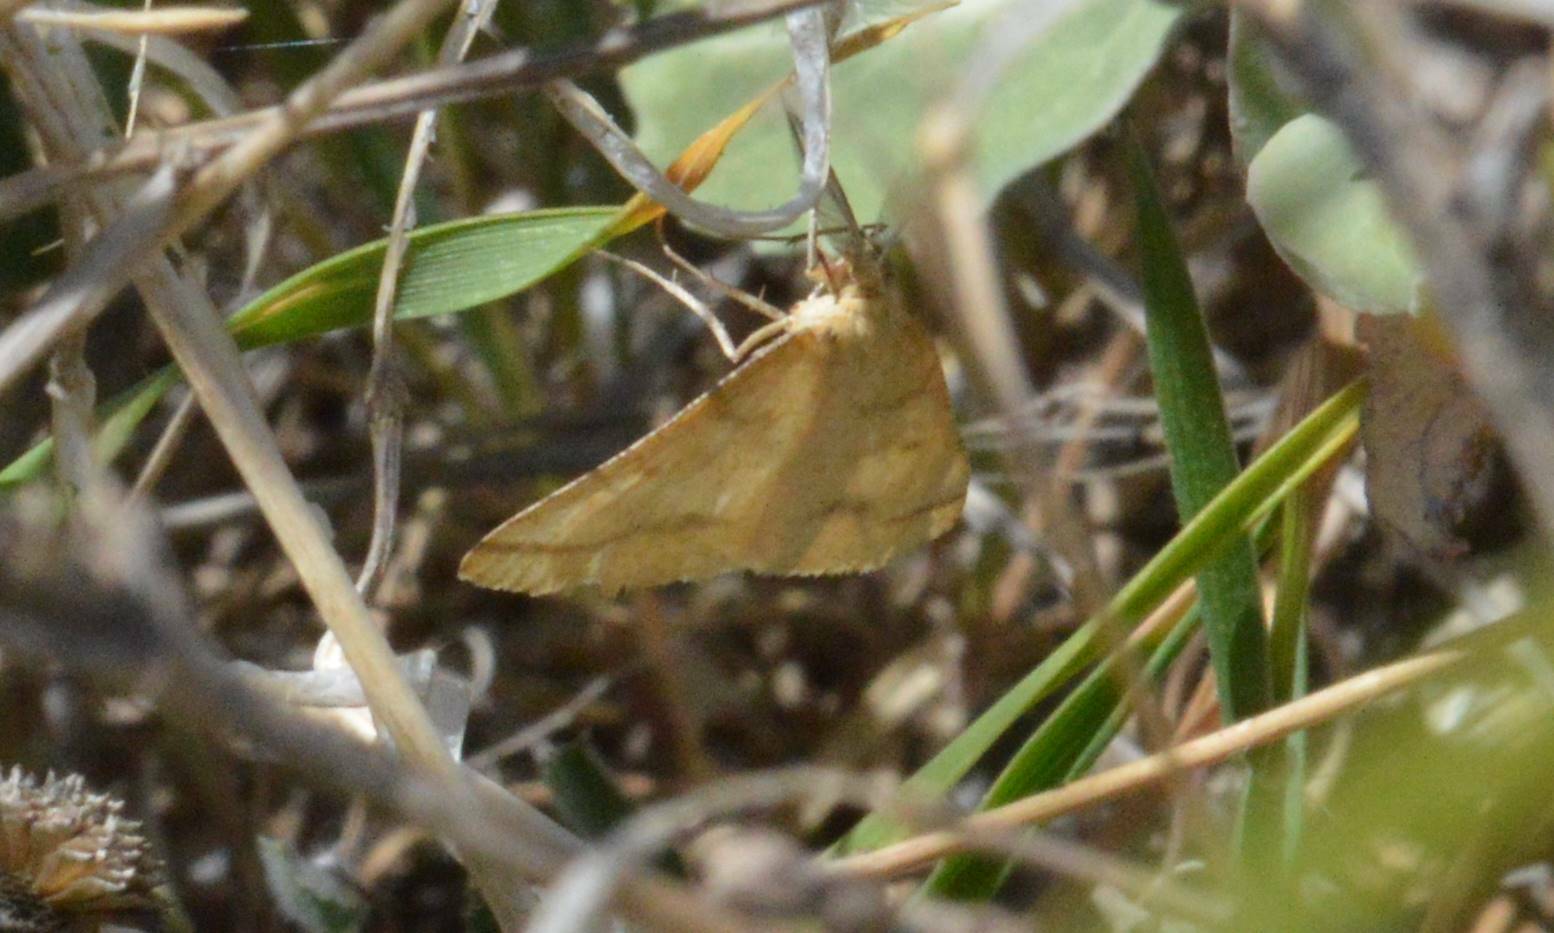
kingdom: Animalia
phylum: Arthropoda
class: Insecta
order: Lepidoptera
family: Geometridae
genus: Aspitates
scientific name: Aspitates ochrearia
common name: Yellow belle
